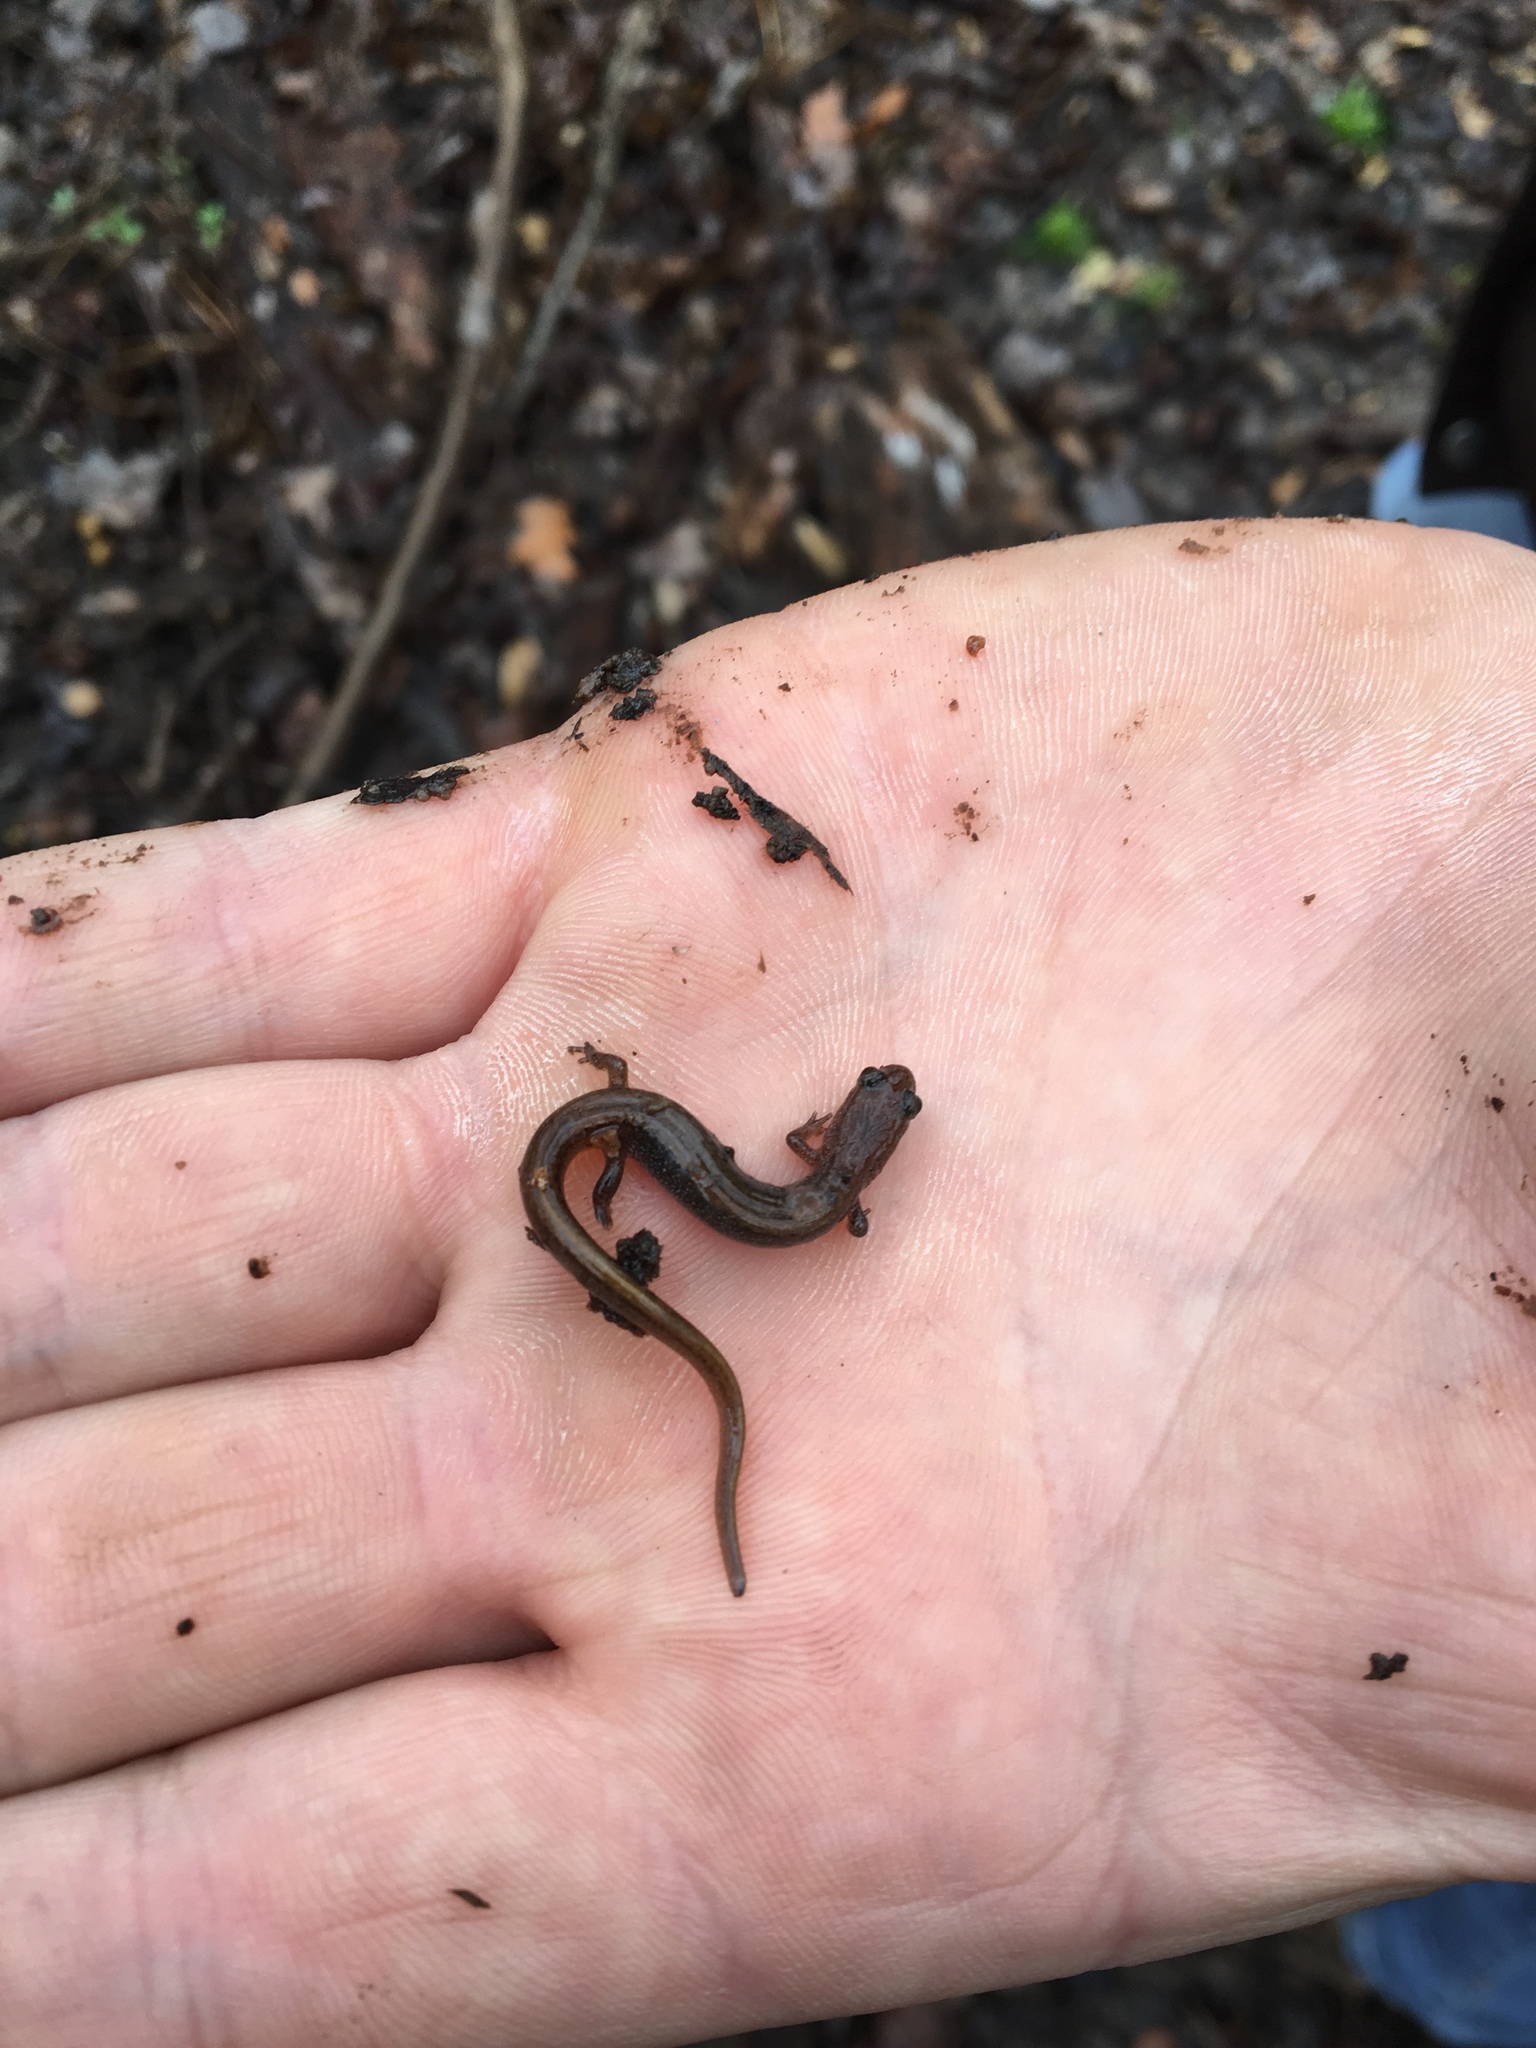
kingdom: Animalia
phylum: Chordata
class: Amphibia
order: Caudata
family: Plethodontidae
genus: Eurycea
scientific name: Eurycea paludicola
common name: Western dwarf salamander
